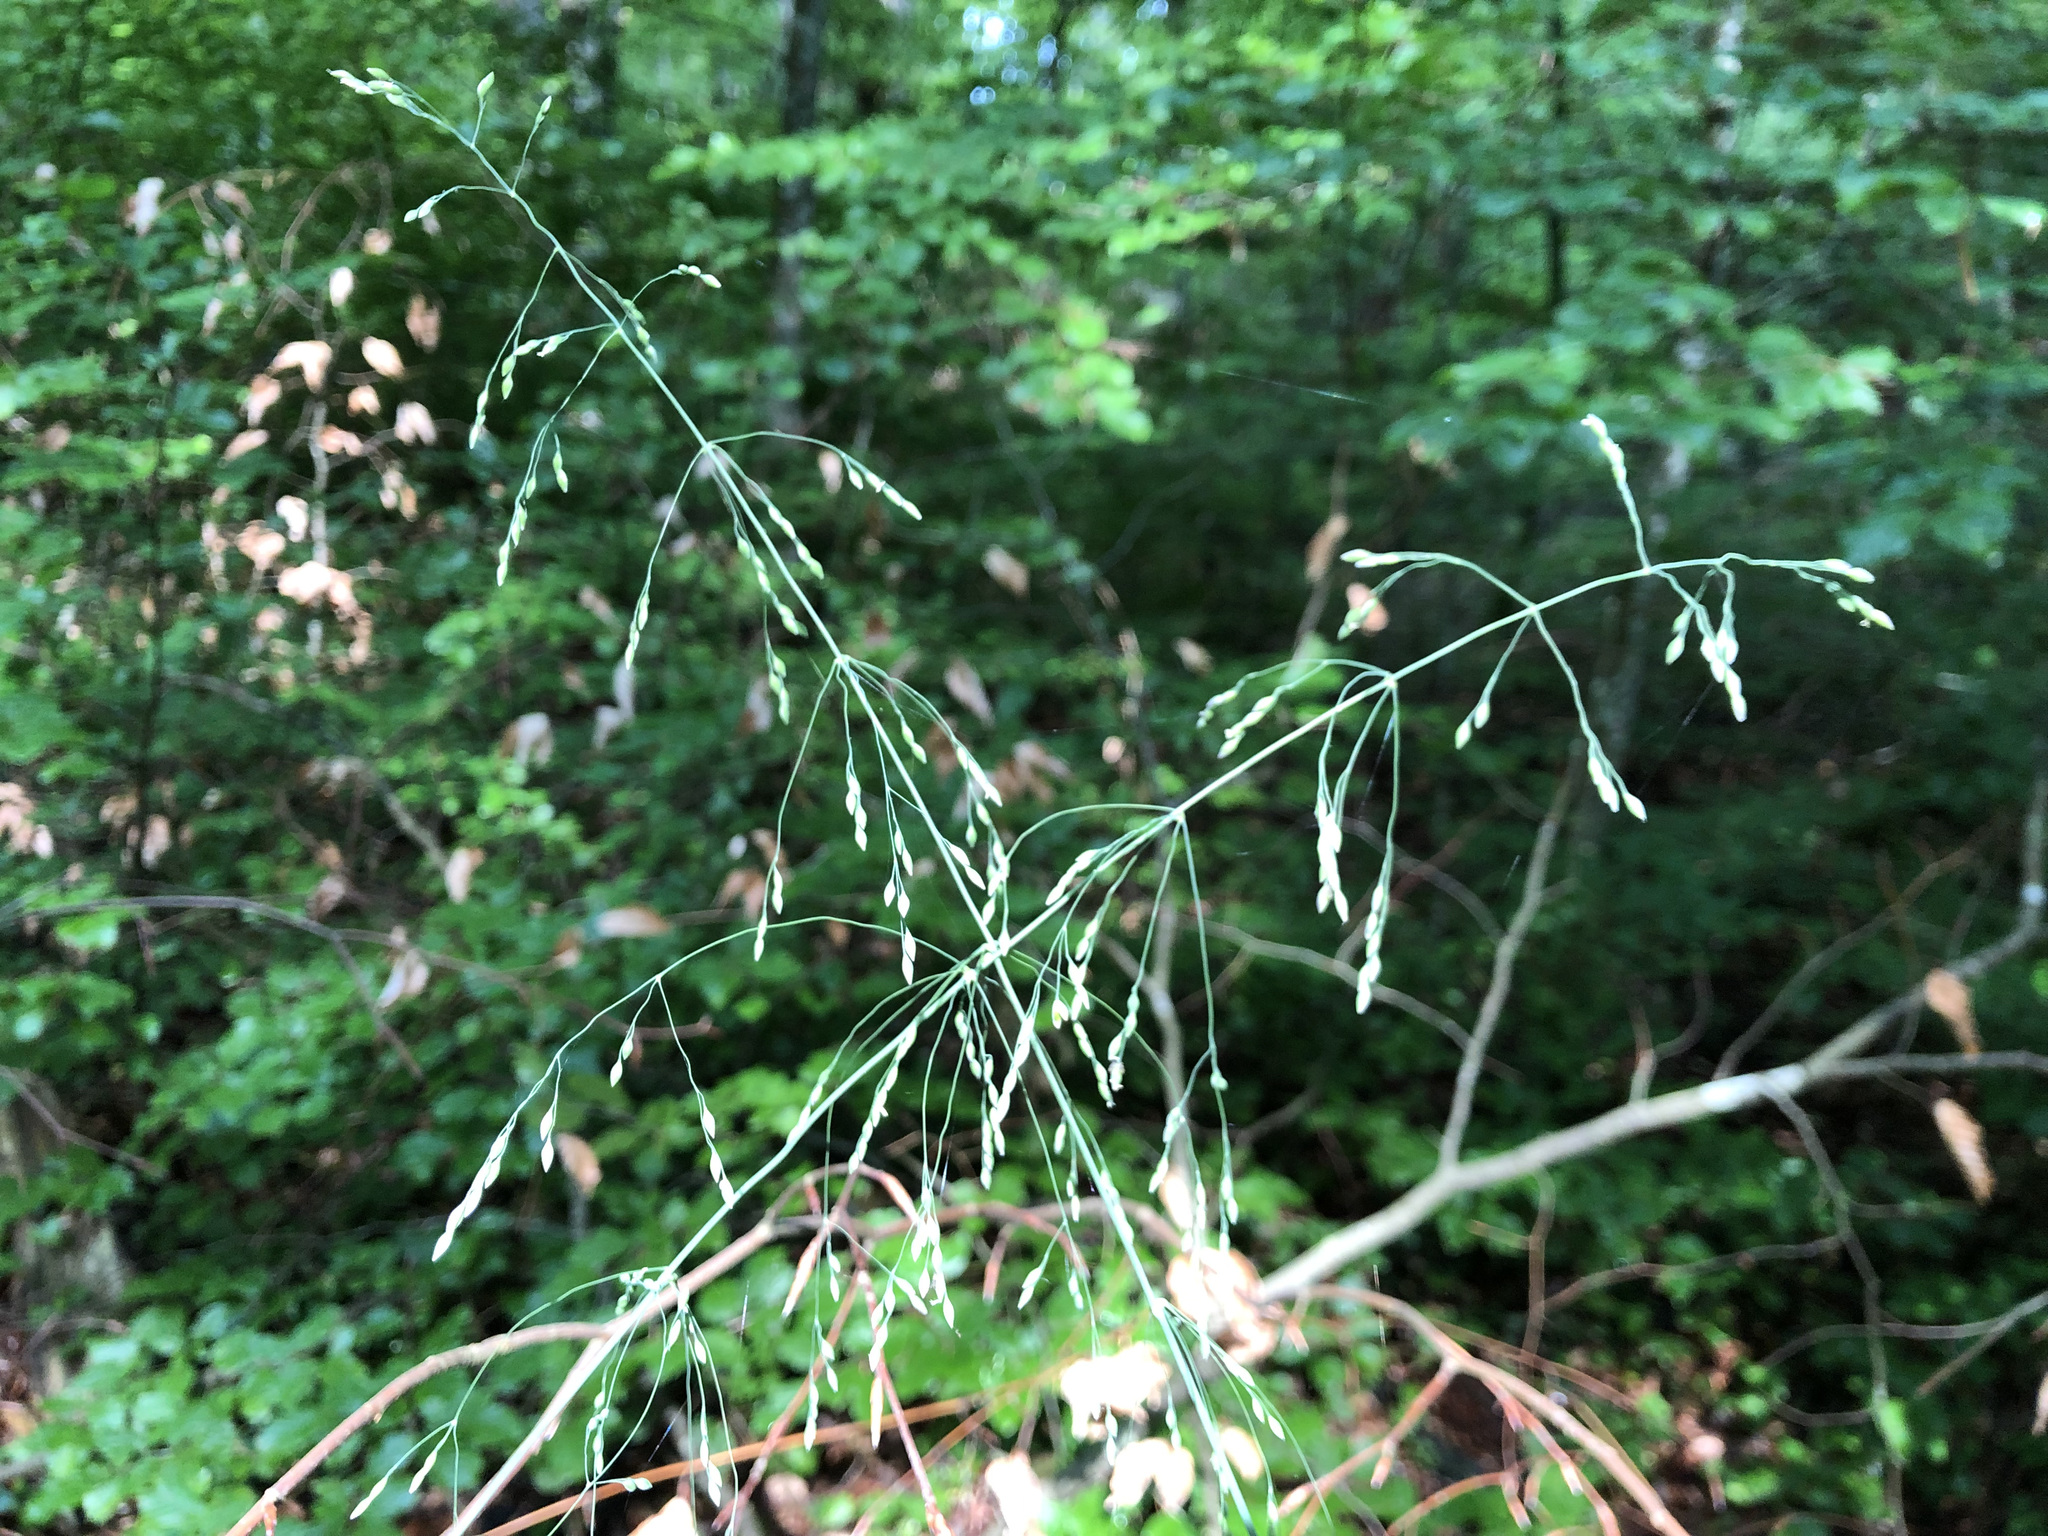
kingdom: Plantae
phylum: Tracheophyta
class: Liliopsida
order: Poales
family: Poaceae
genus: Milium
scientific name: Milium effusum
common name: Wood millet
